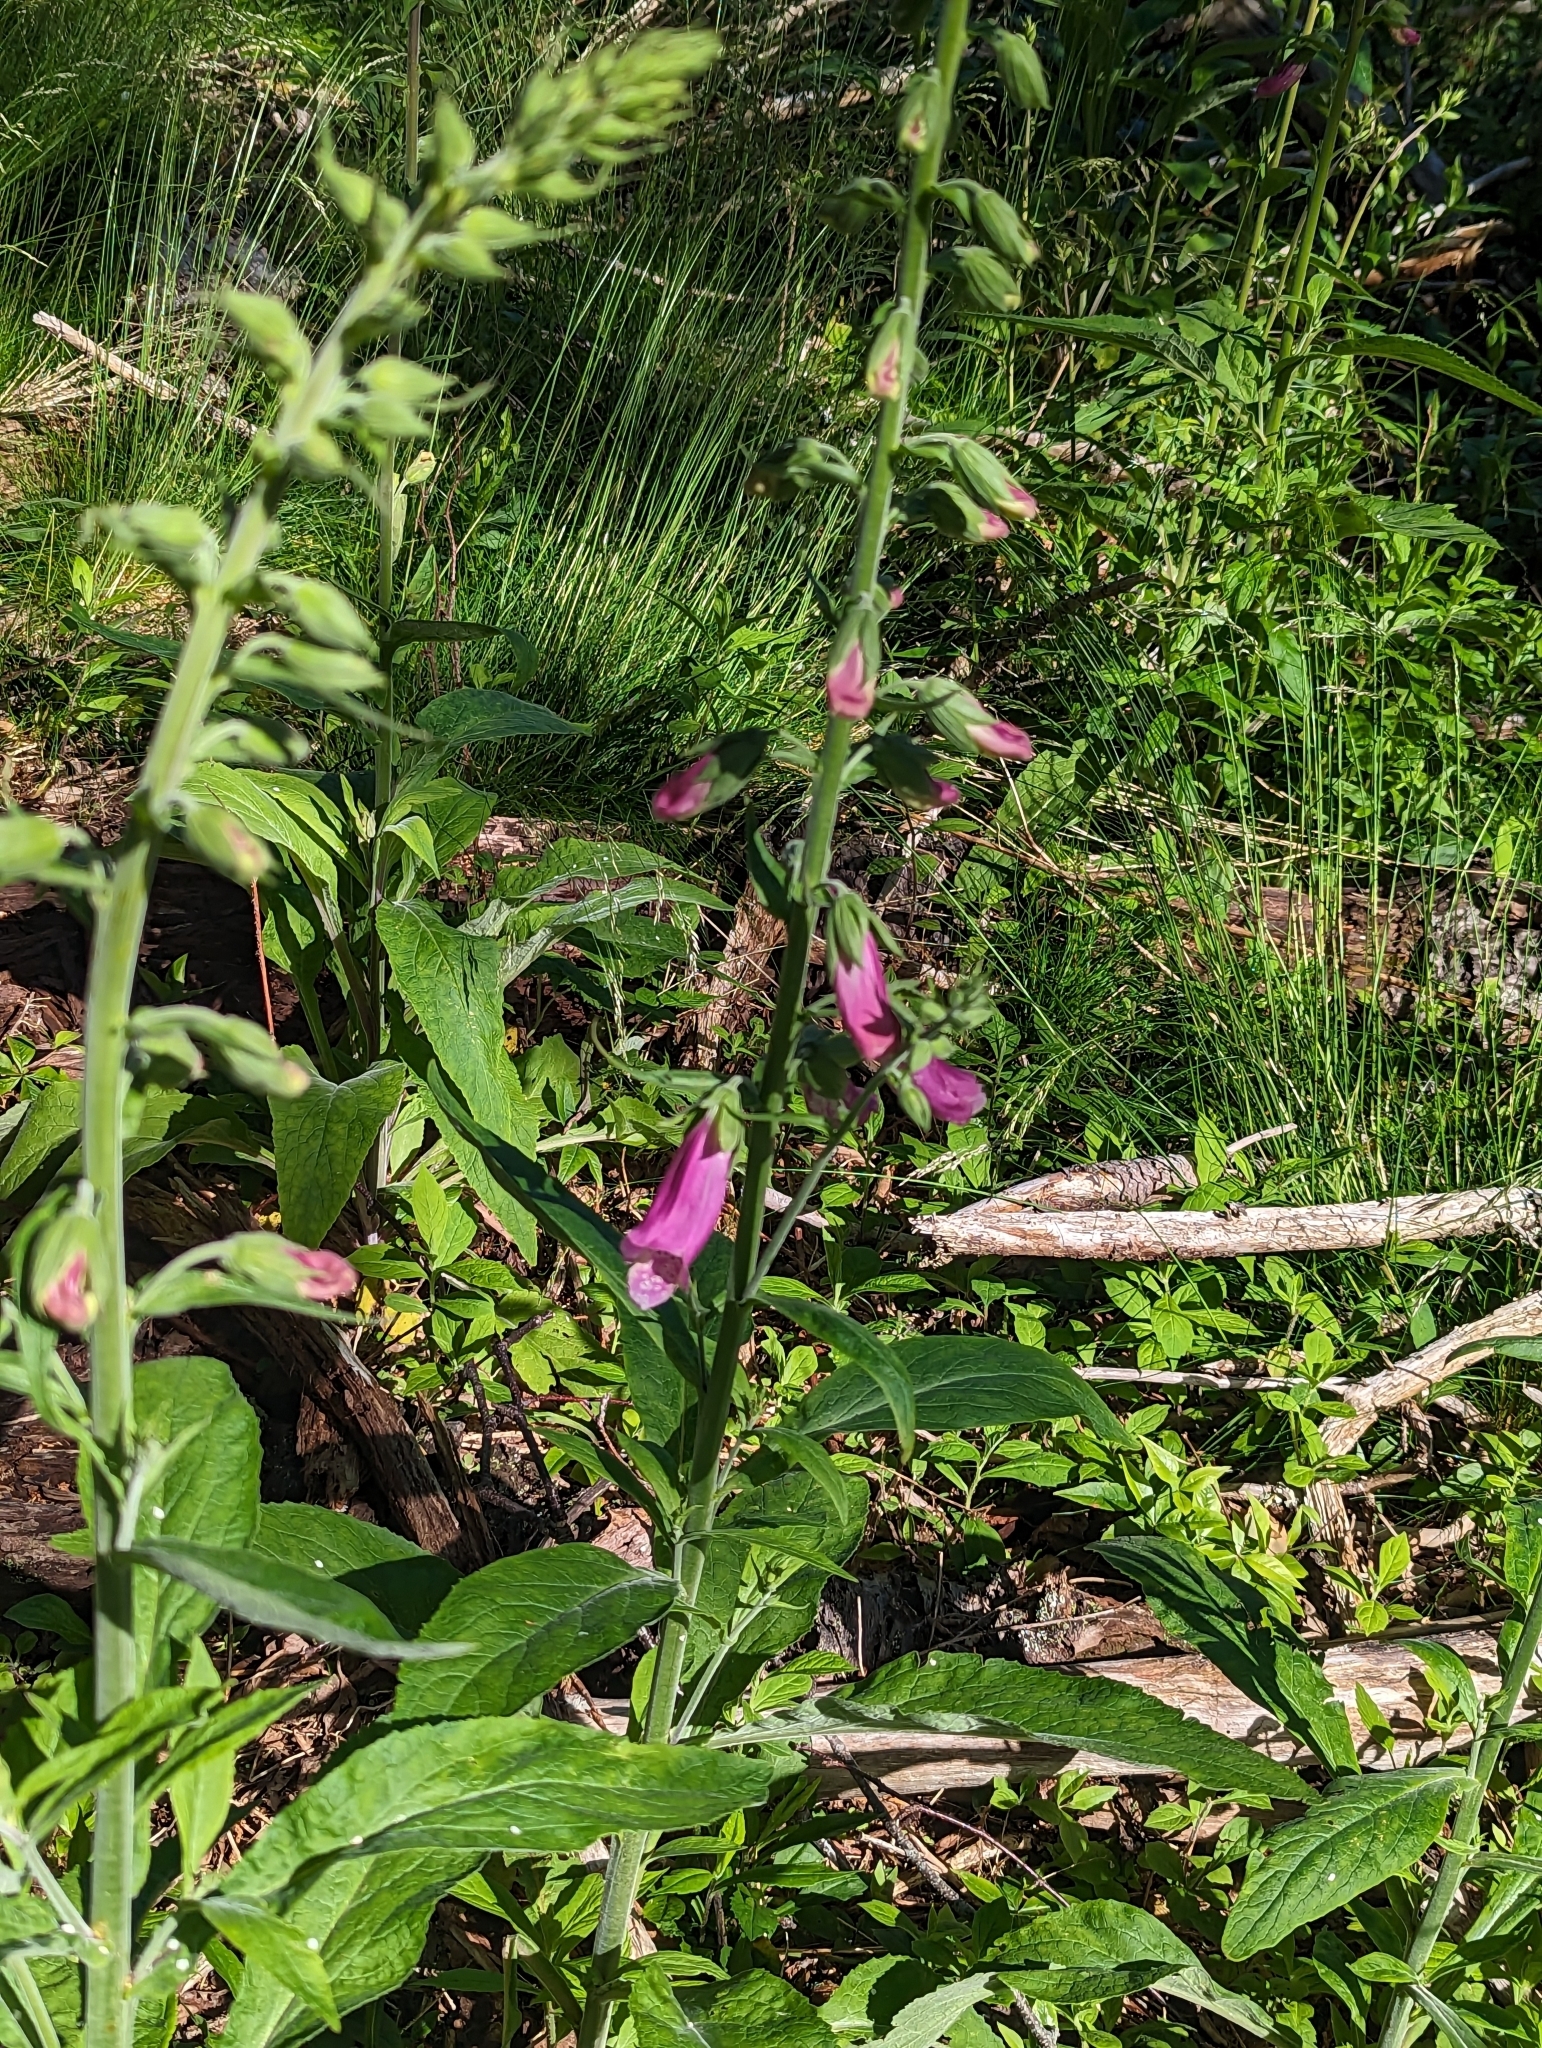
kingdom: Plantae
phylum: Tracheophyta
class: Magnoliopsida
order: Lamiales
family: Plantaginaceae
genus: Digitalis
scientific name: Digitalis purpurea
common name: Foxglove
